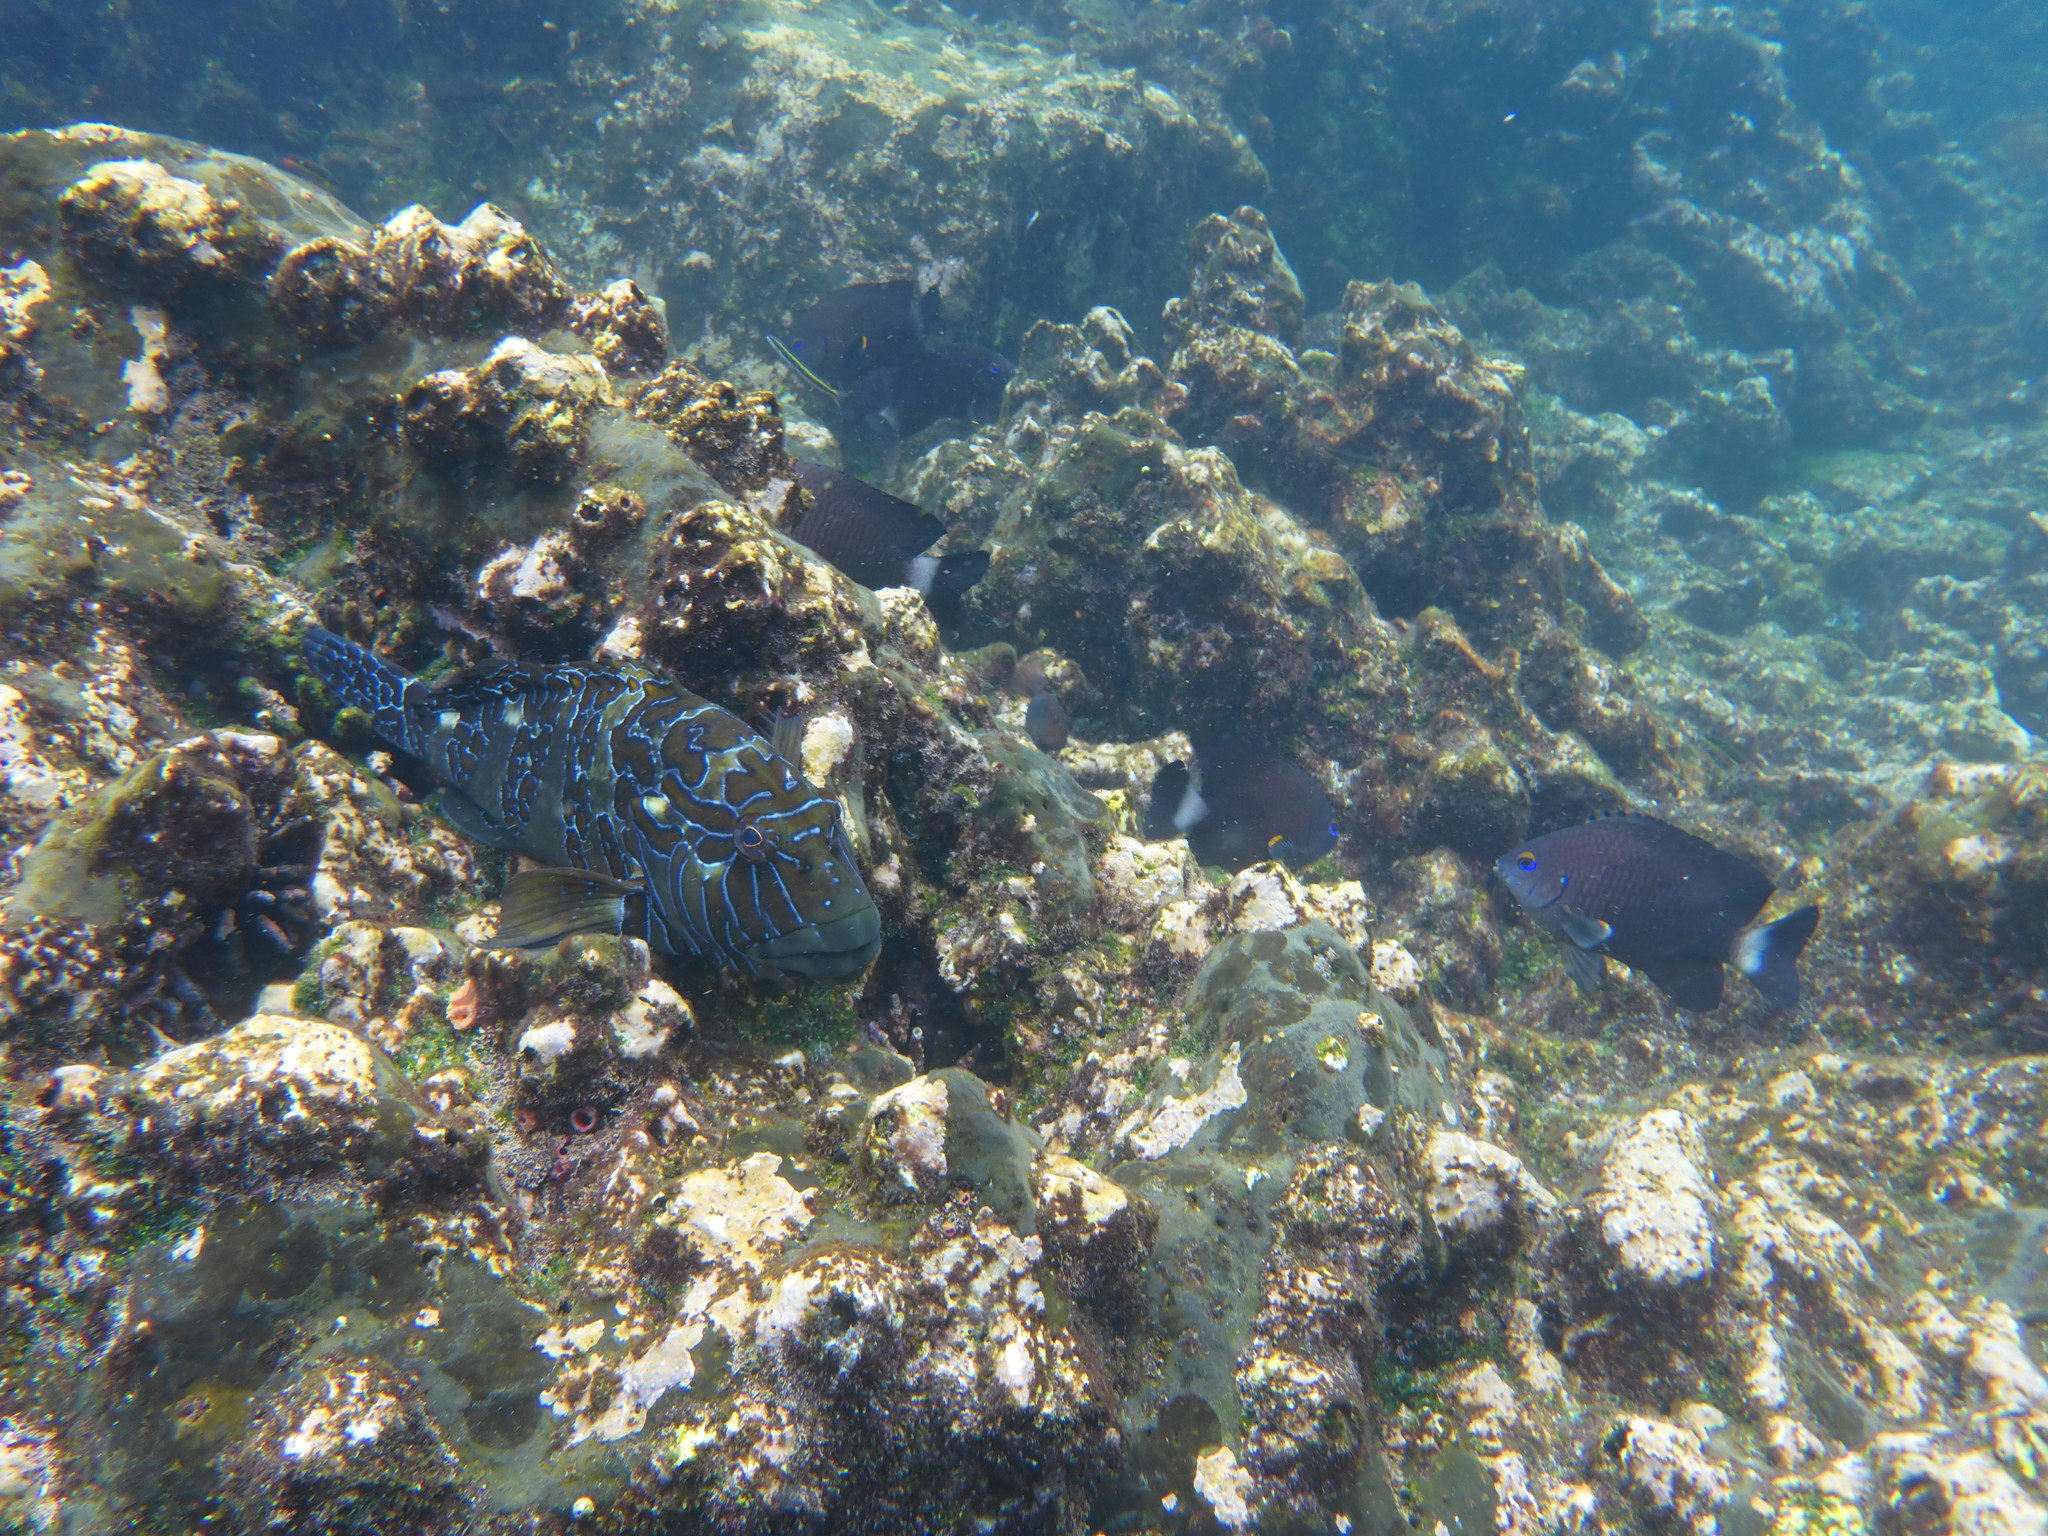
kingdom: Animalia
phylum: Chordata
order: Perciformes
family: Cirrhitidae
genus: Cirrhitus
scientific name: Cirrhitus rivulatus
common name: Giant hawkfish
